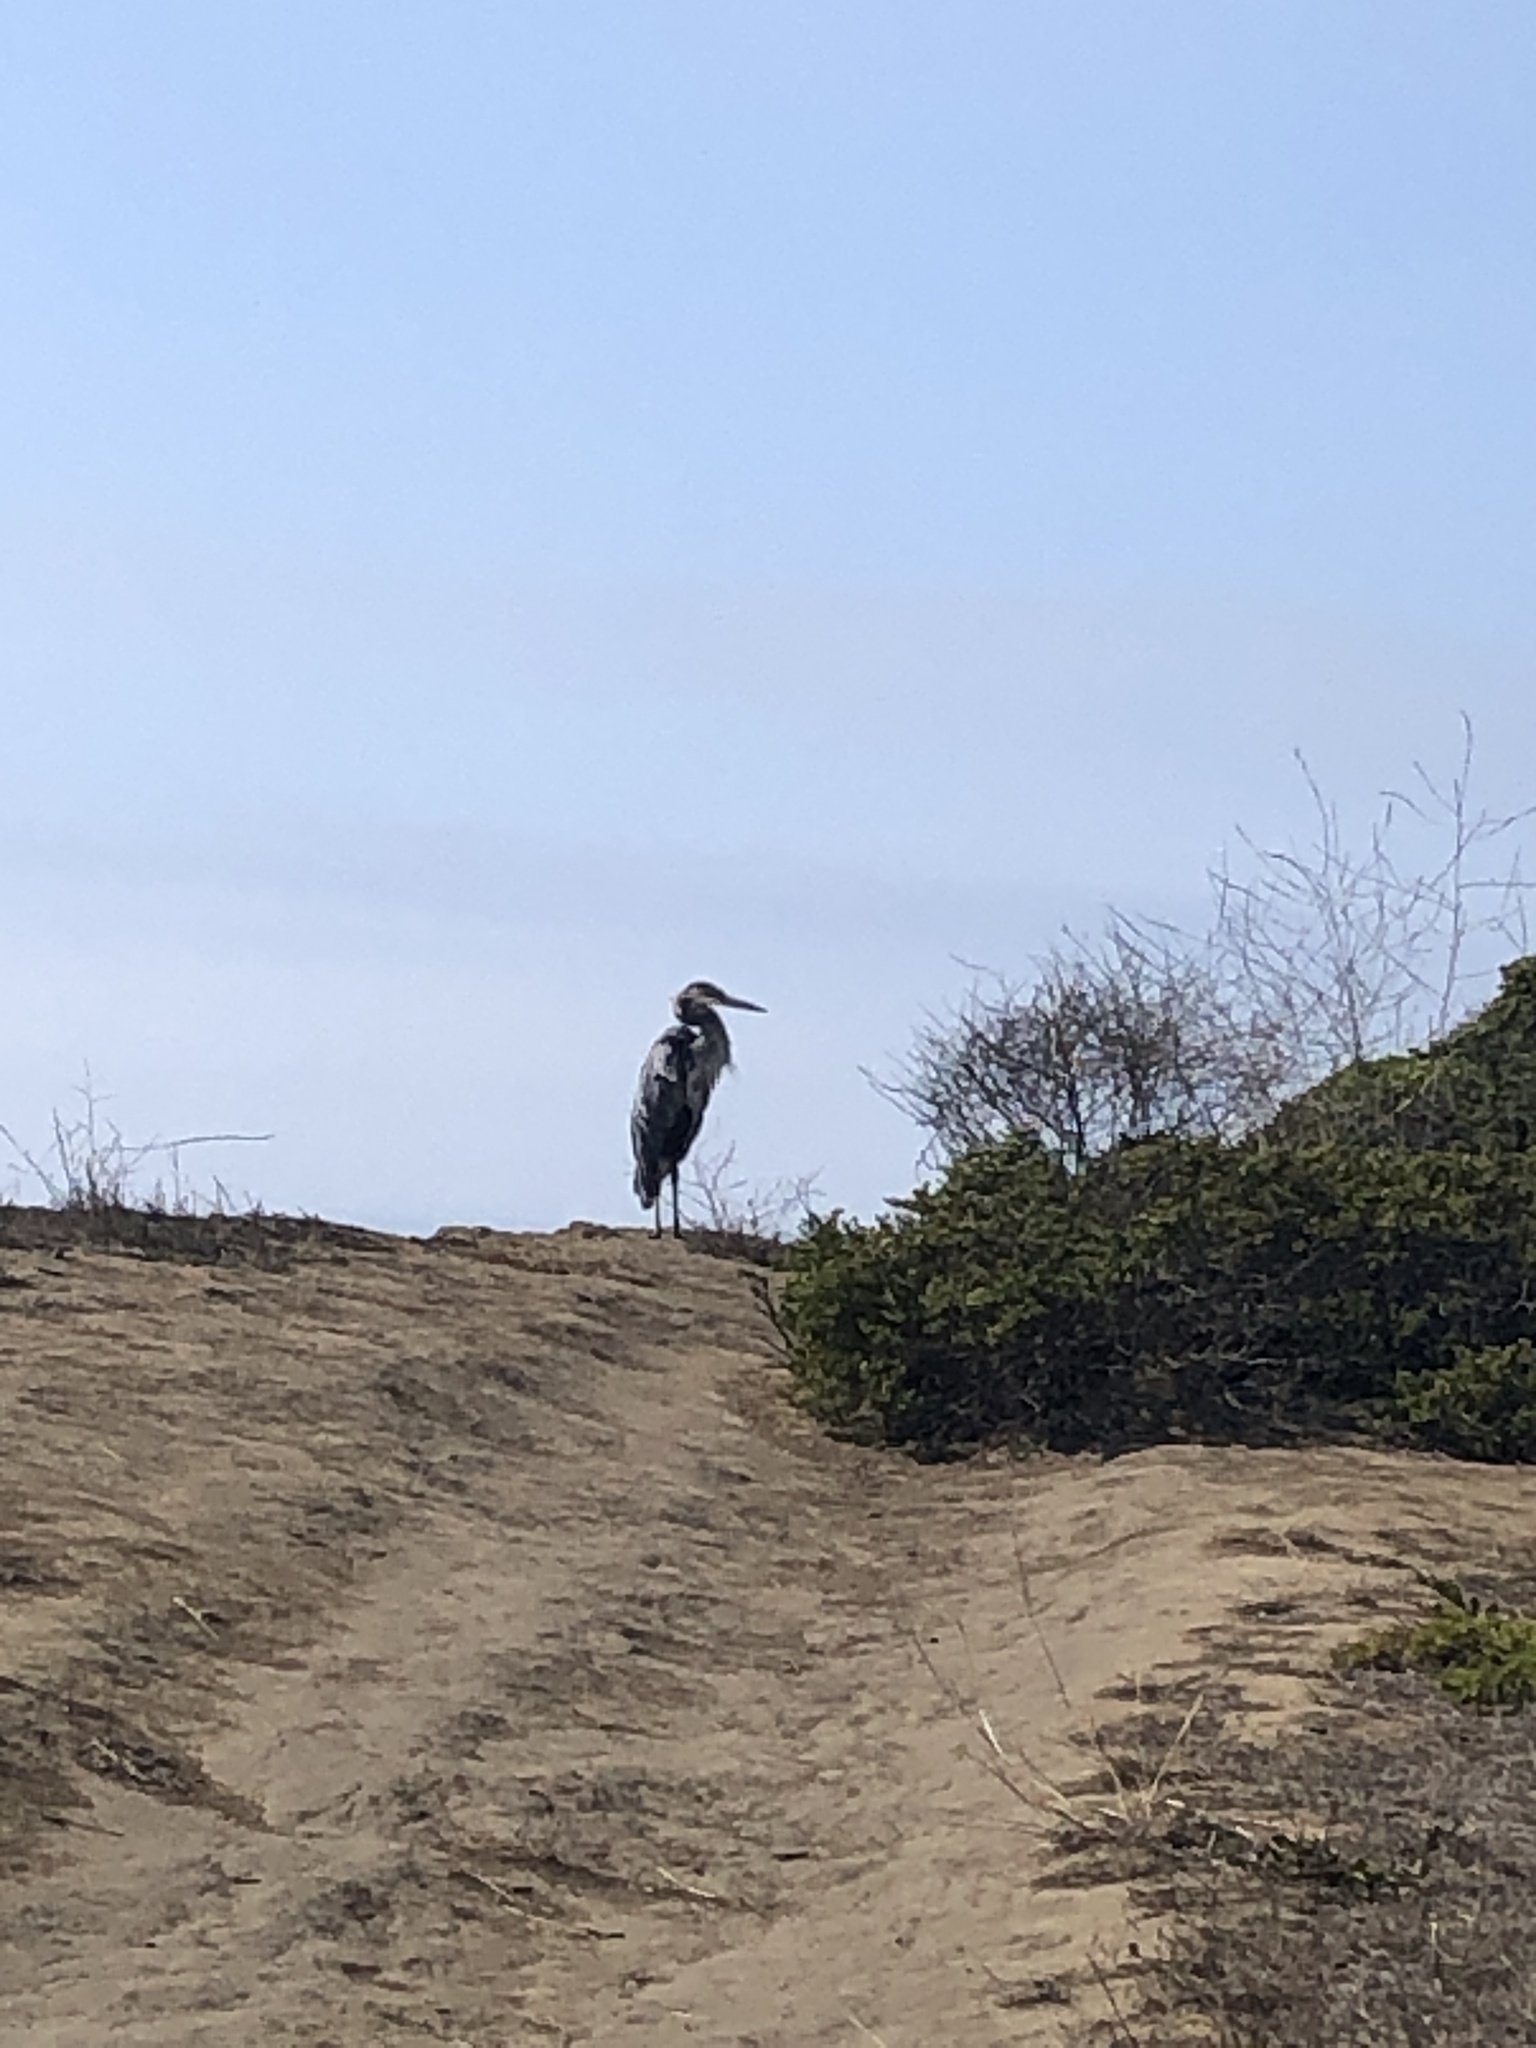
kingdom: Animalia
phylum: Chordata
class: Aves
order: Pelecaniformes
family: Ardeidae
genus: Ardea
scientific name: Ardea herodias
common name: Great blue heron
